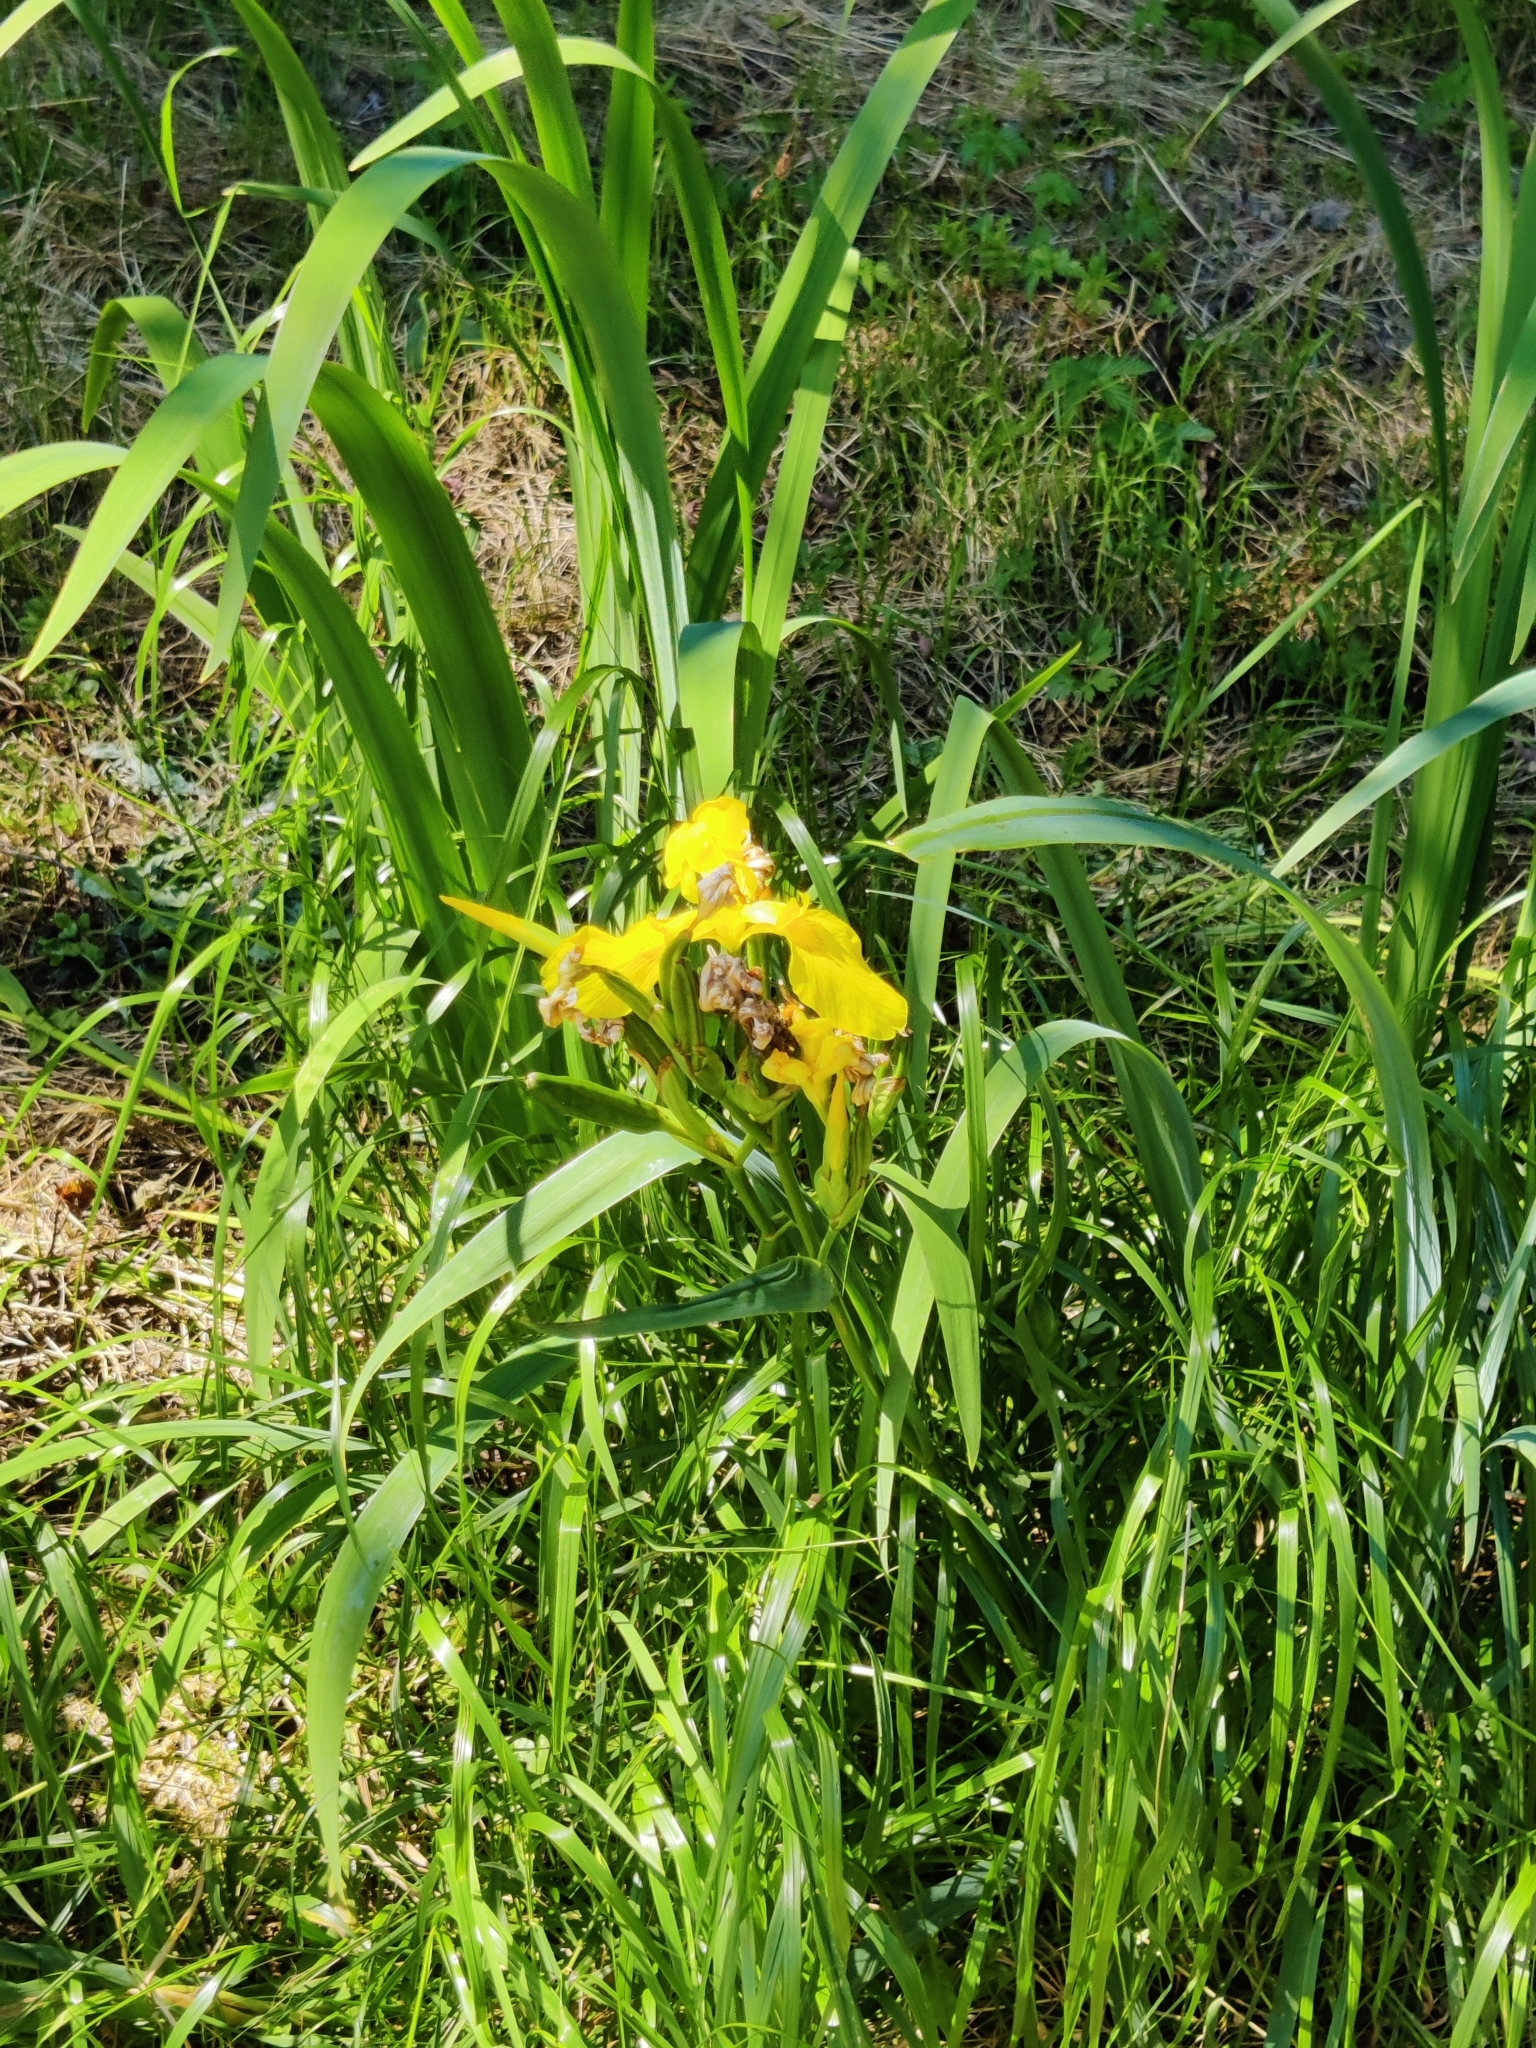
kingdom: Plantae
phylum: Tracheophyta
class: Liliopsida
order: Asparagales
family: Iridaceae
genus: Iris
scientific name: Iris pseudacorus
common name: Yellow flag
